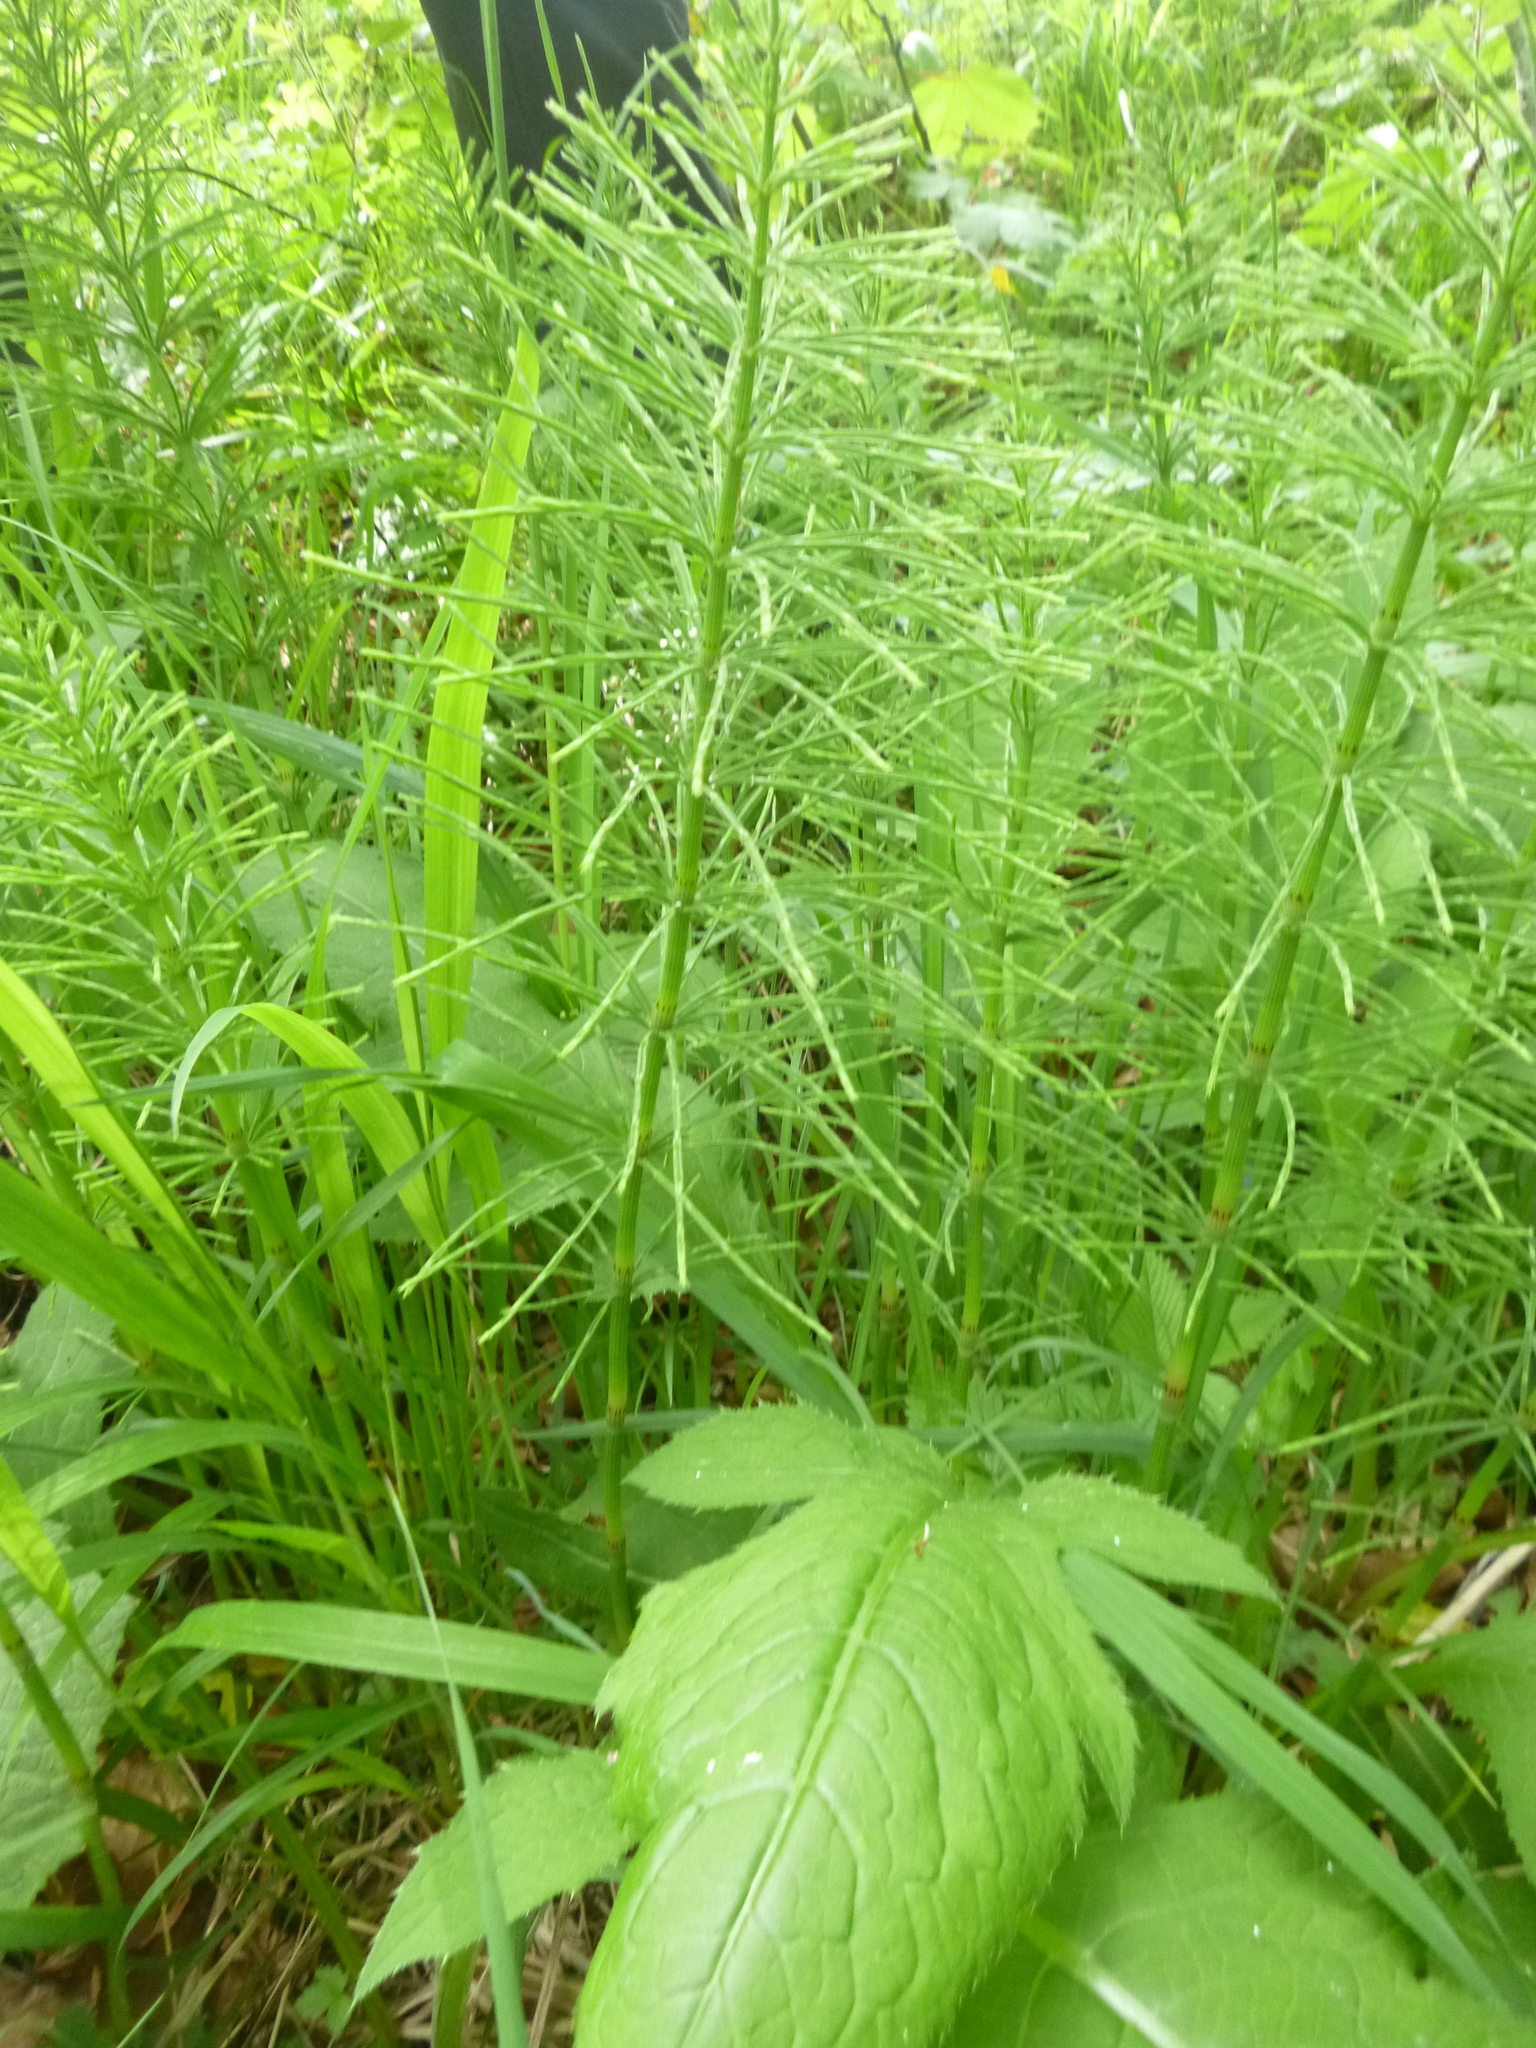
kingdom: Plantae
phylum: Tracheophyta
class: Polypodiopsida
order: Equisetales
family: Equisetaceae
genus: Equisetum
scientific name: Equisetum arvense
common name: Field horsetail
